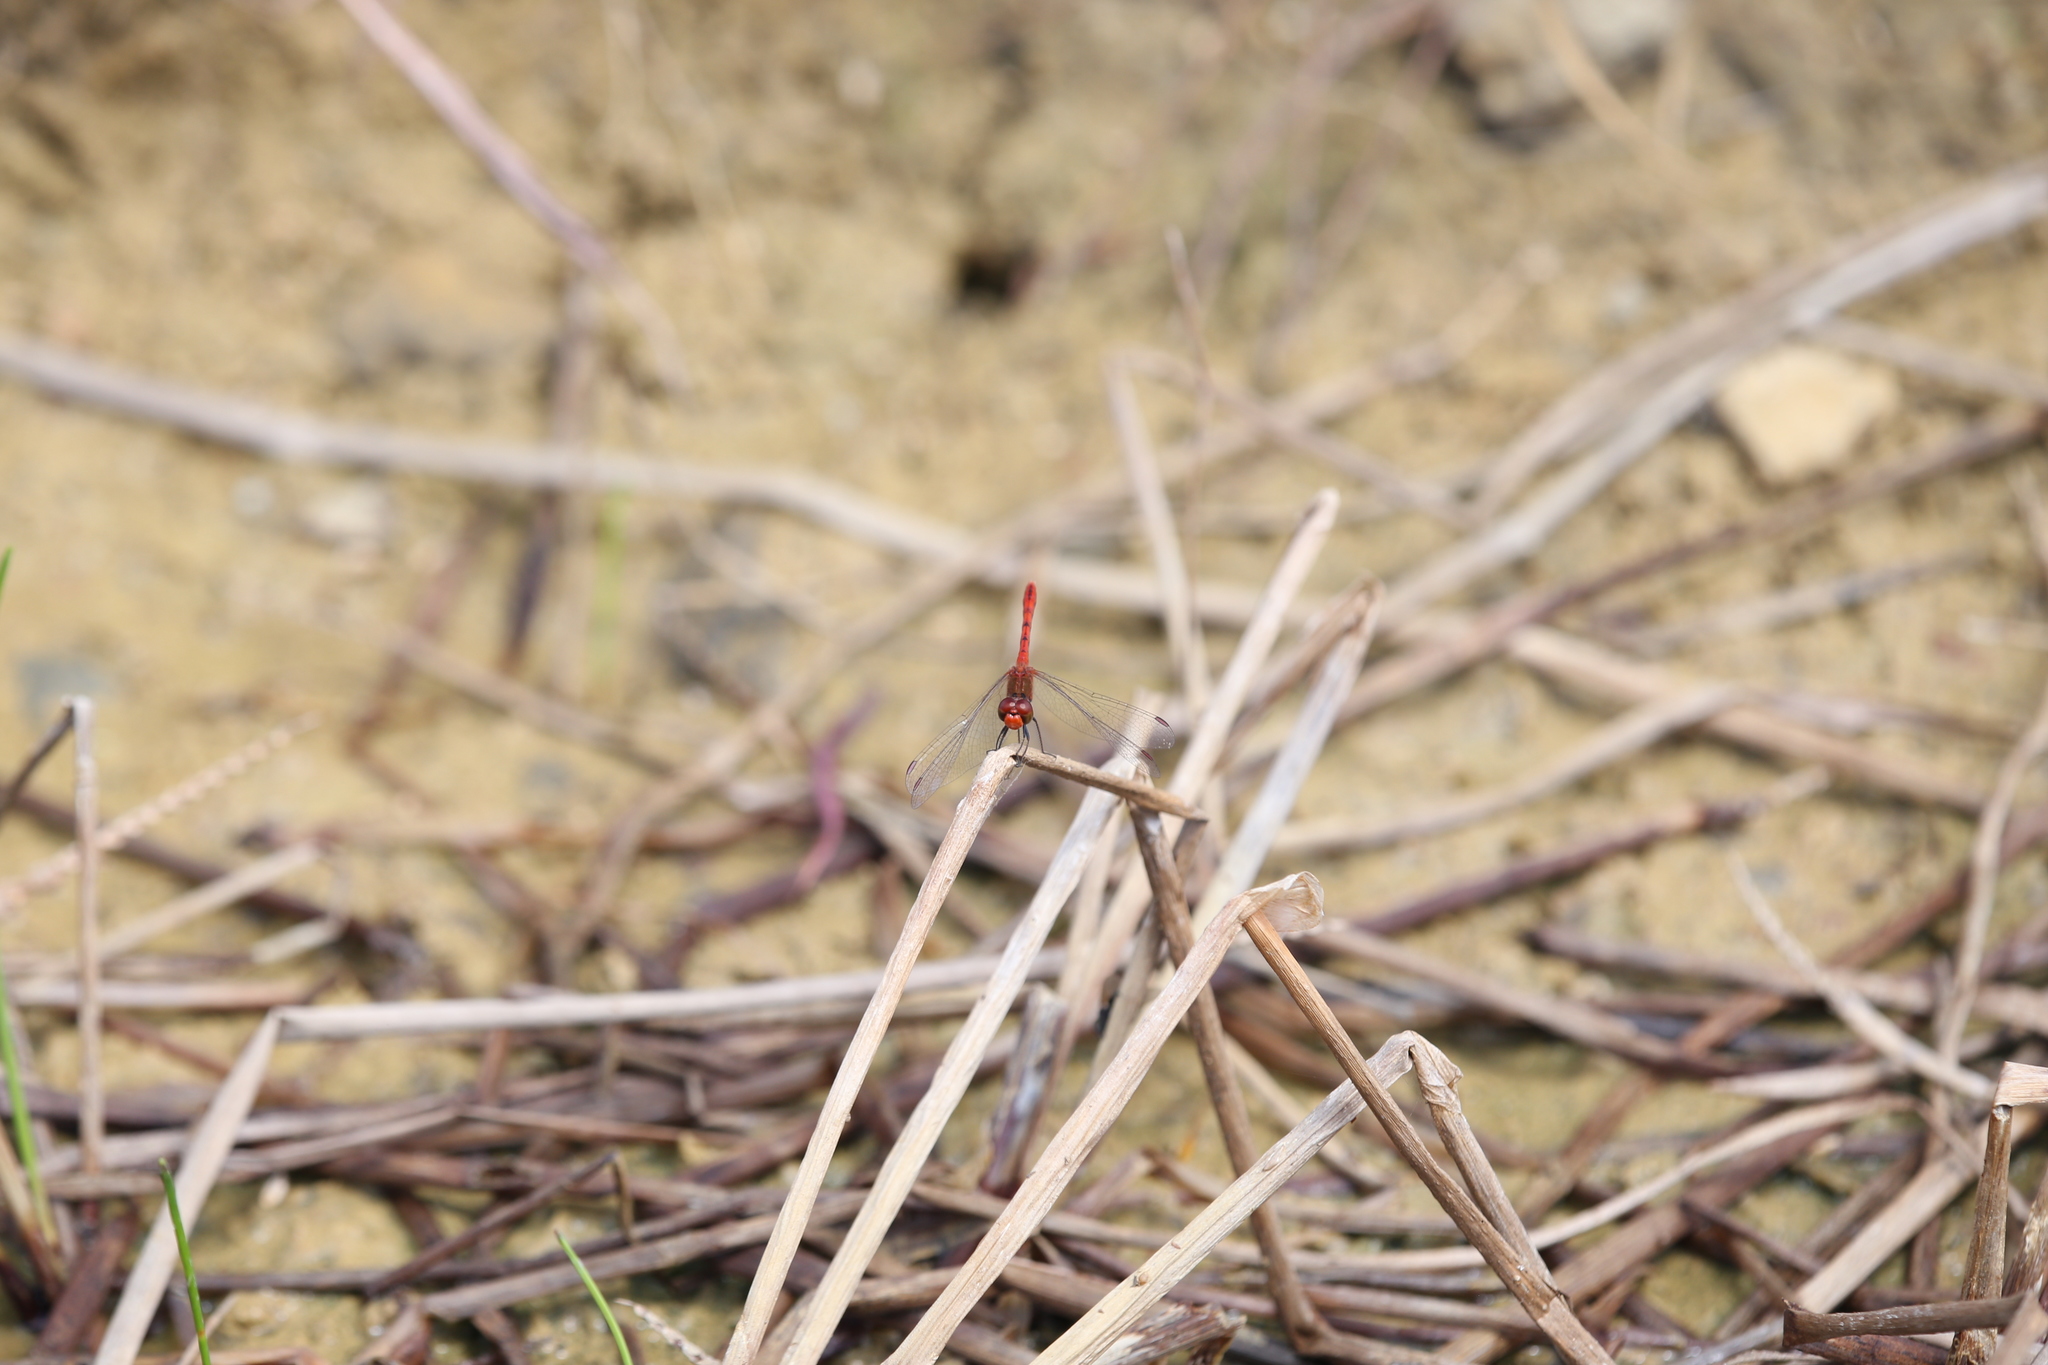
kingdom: Animalia
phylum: Arthropoda
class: Insecta
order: Odonata
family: Libellulidae
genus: Diplacodes
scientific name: Diplacodes bipunctata
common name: Red percher dragonfly
